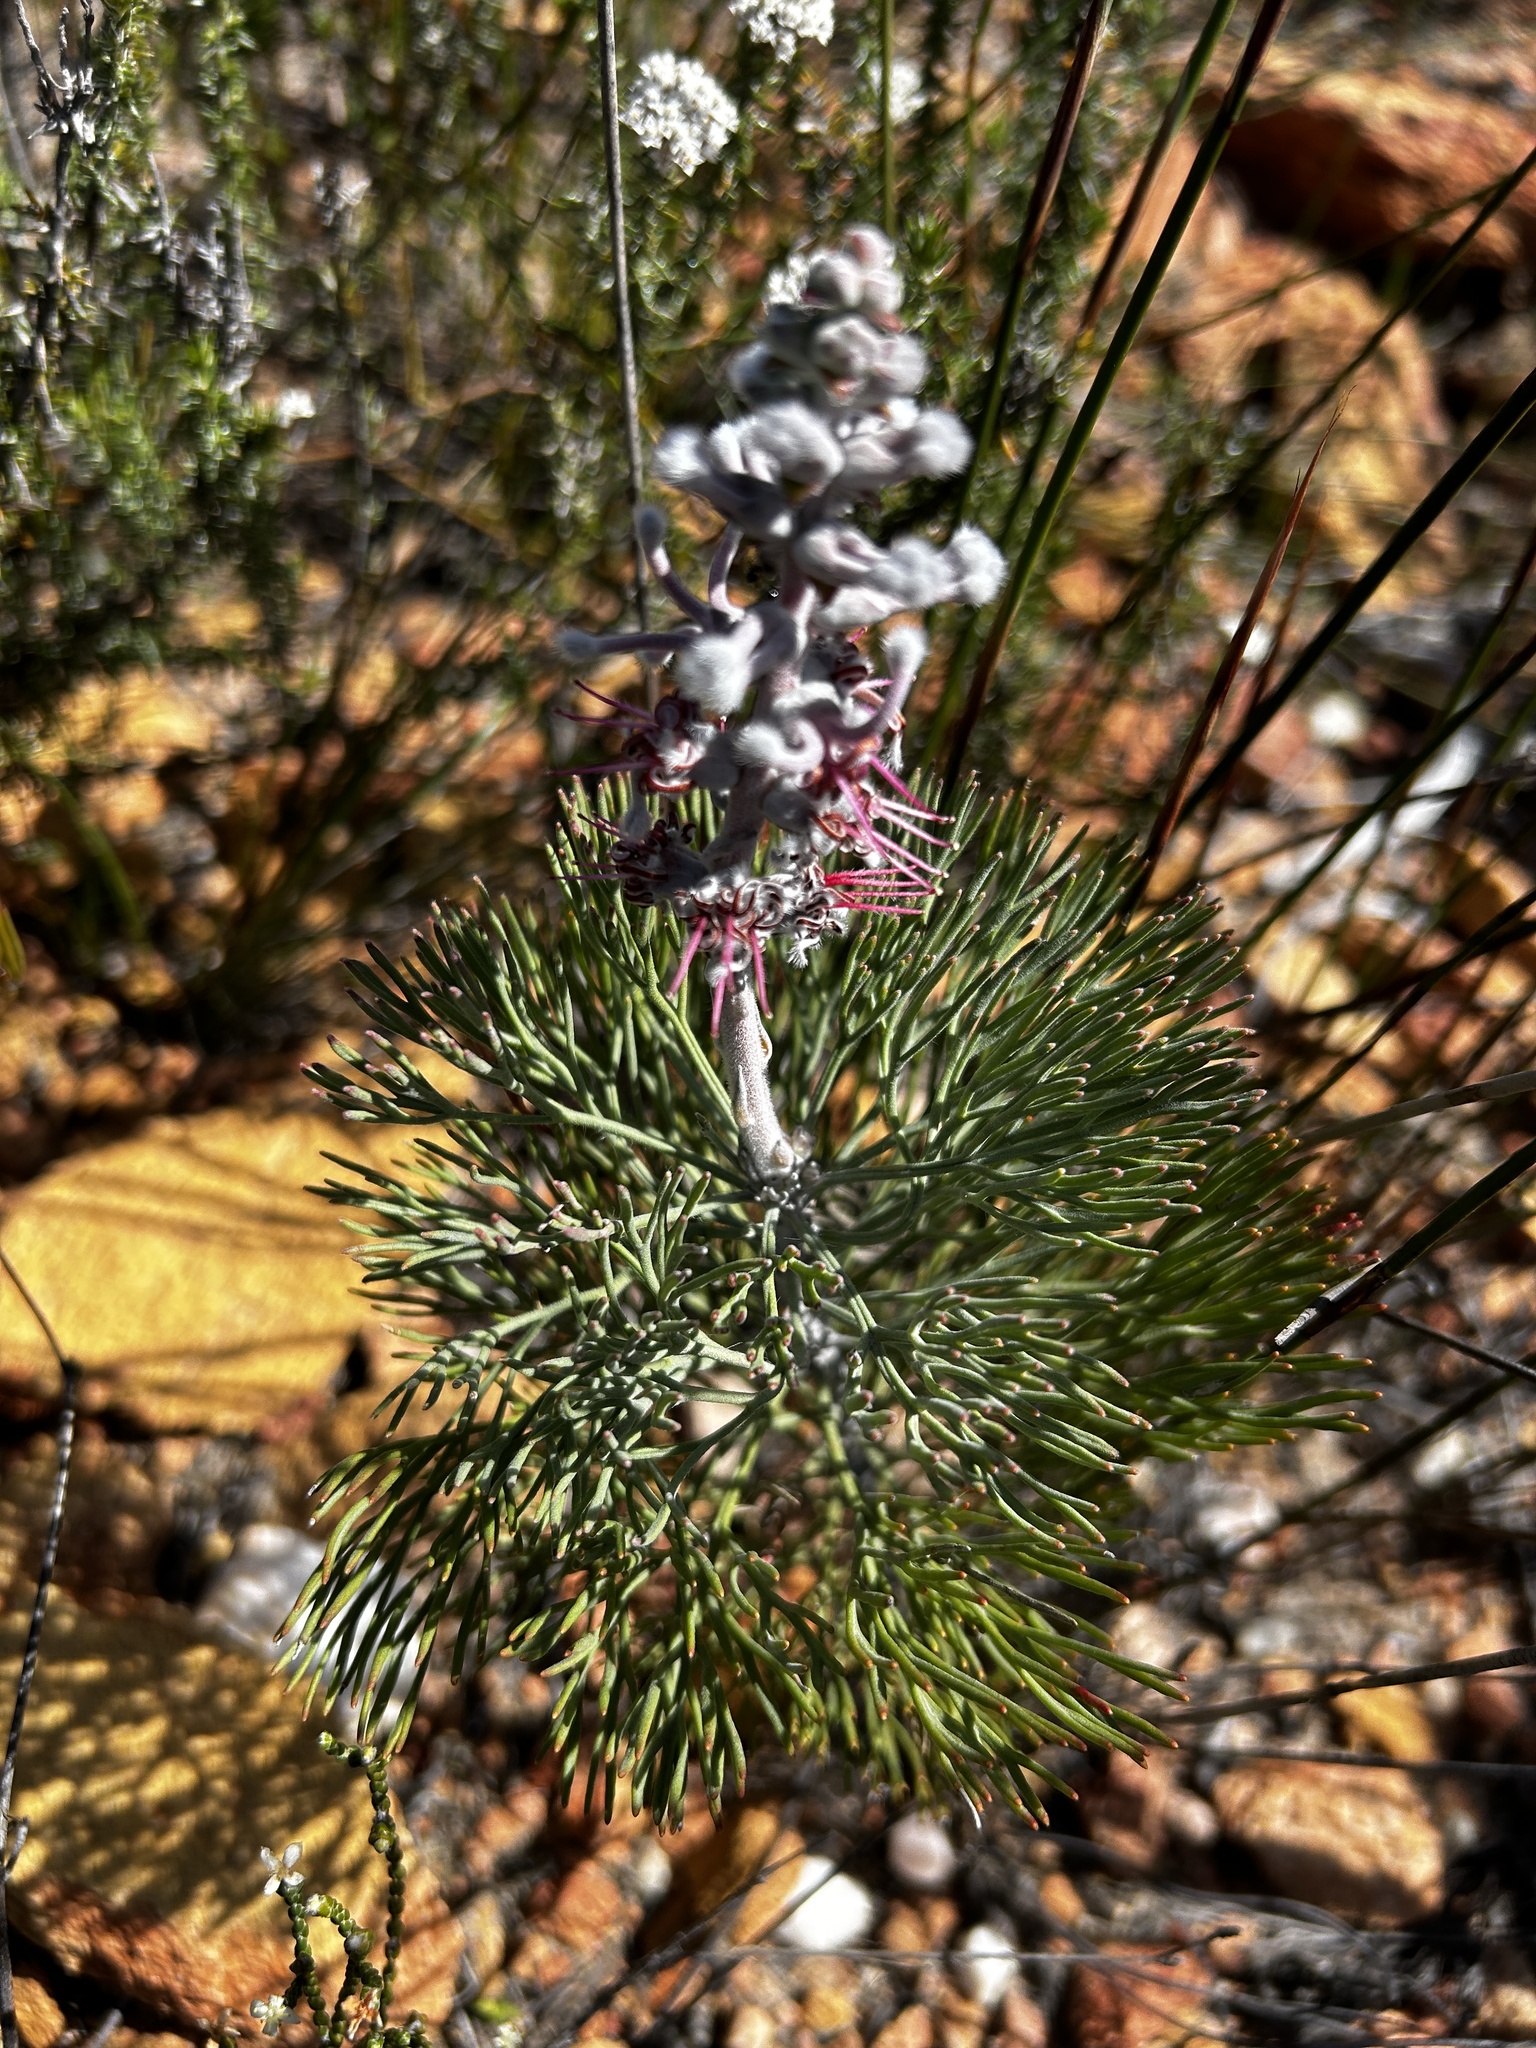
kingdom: Plantae
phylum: Tracheophyta
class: Magnoliopsida
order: Proteales
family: Proteaceae
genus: Paranomus
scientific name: Paranomus dispersus
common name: Long-head sceptre
